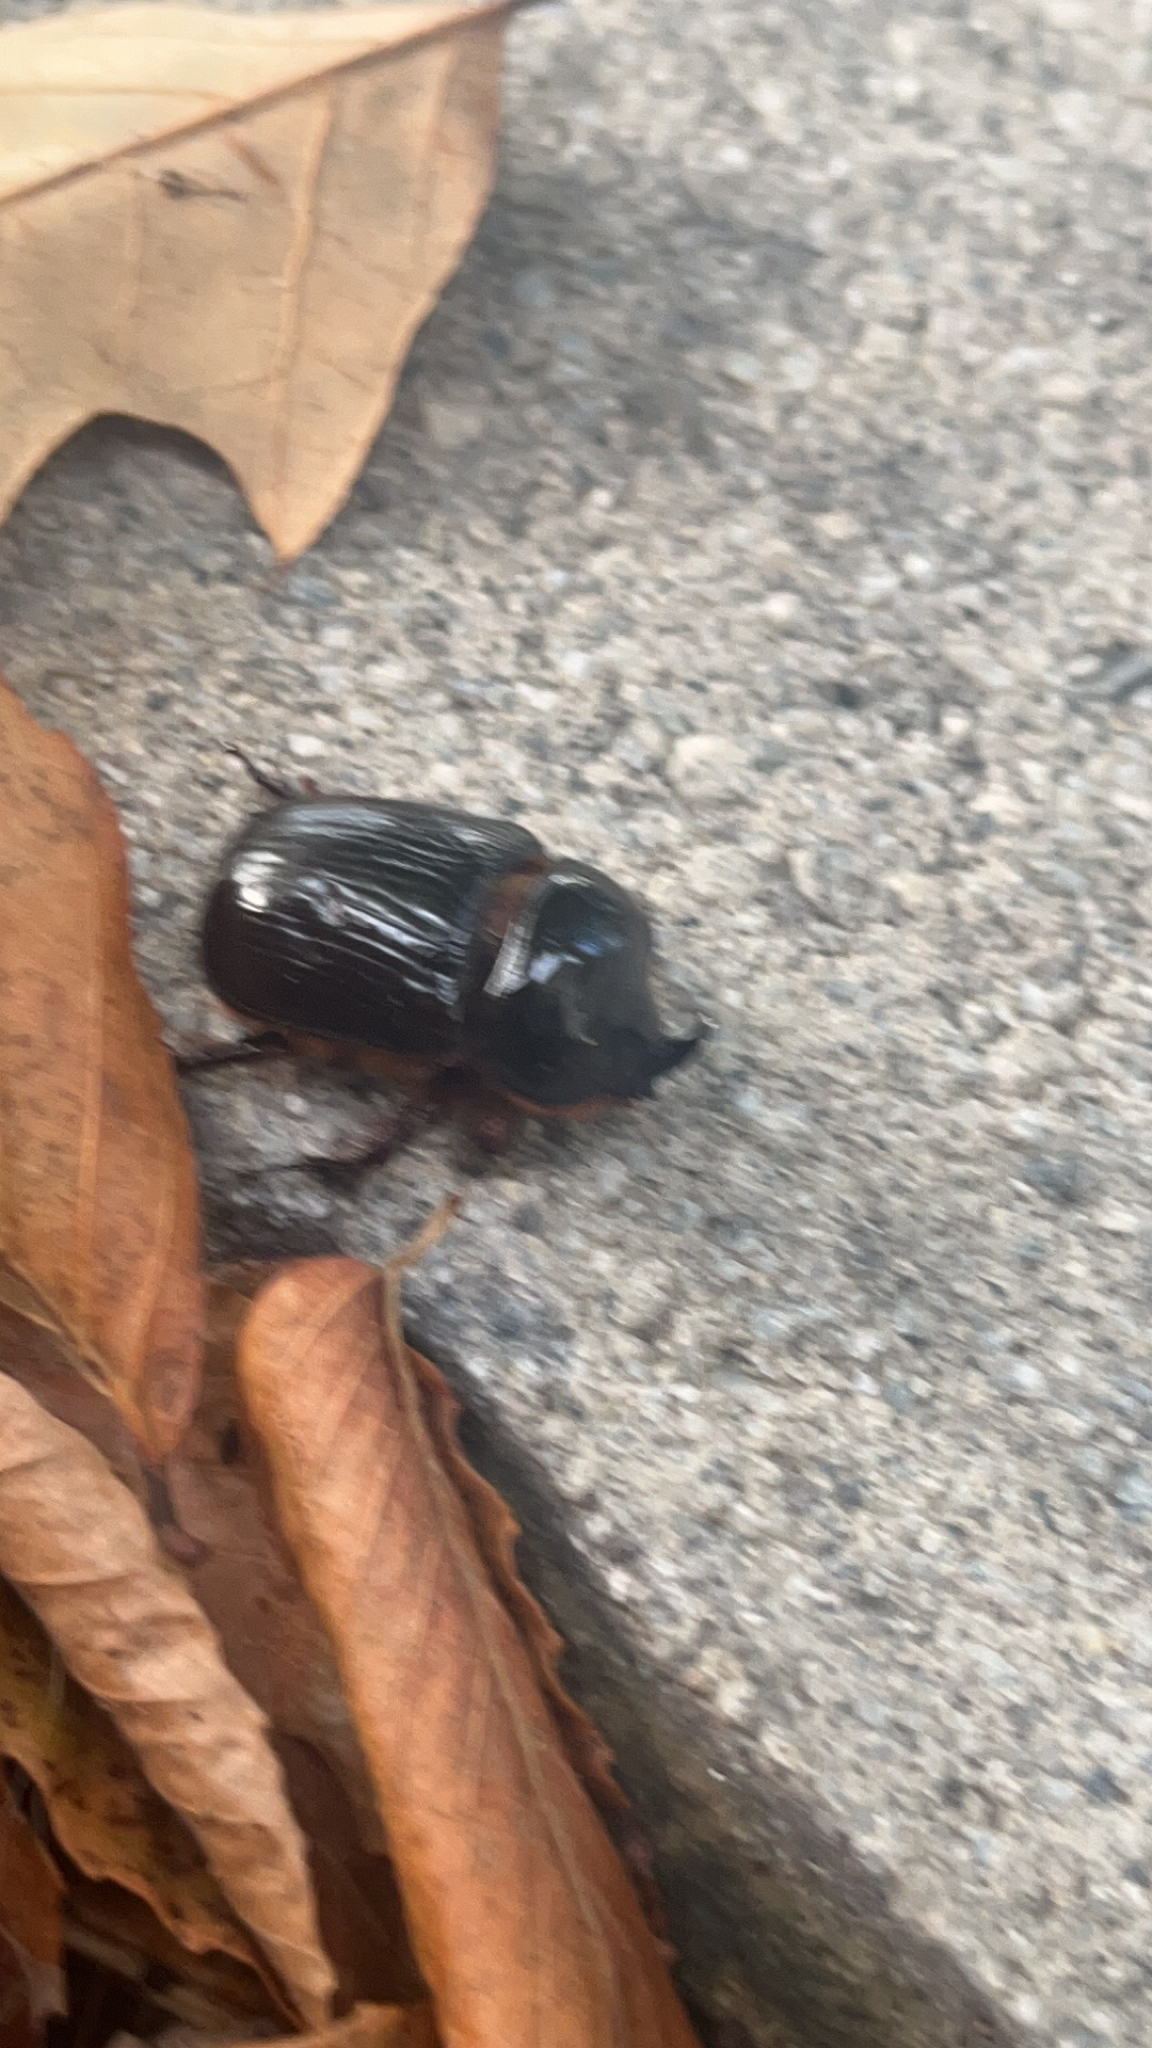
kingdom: Animalia
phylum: Arthropoda
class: Insecta
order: Coleoptera
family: Scarabaeidae
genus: Xyloryctes
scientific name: Xyloryctes jamaicensis
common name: Eastern rhinoceros beetle
